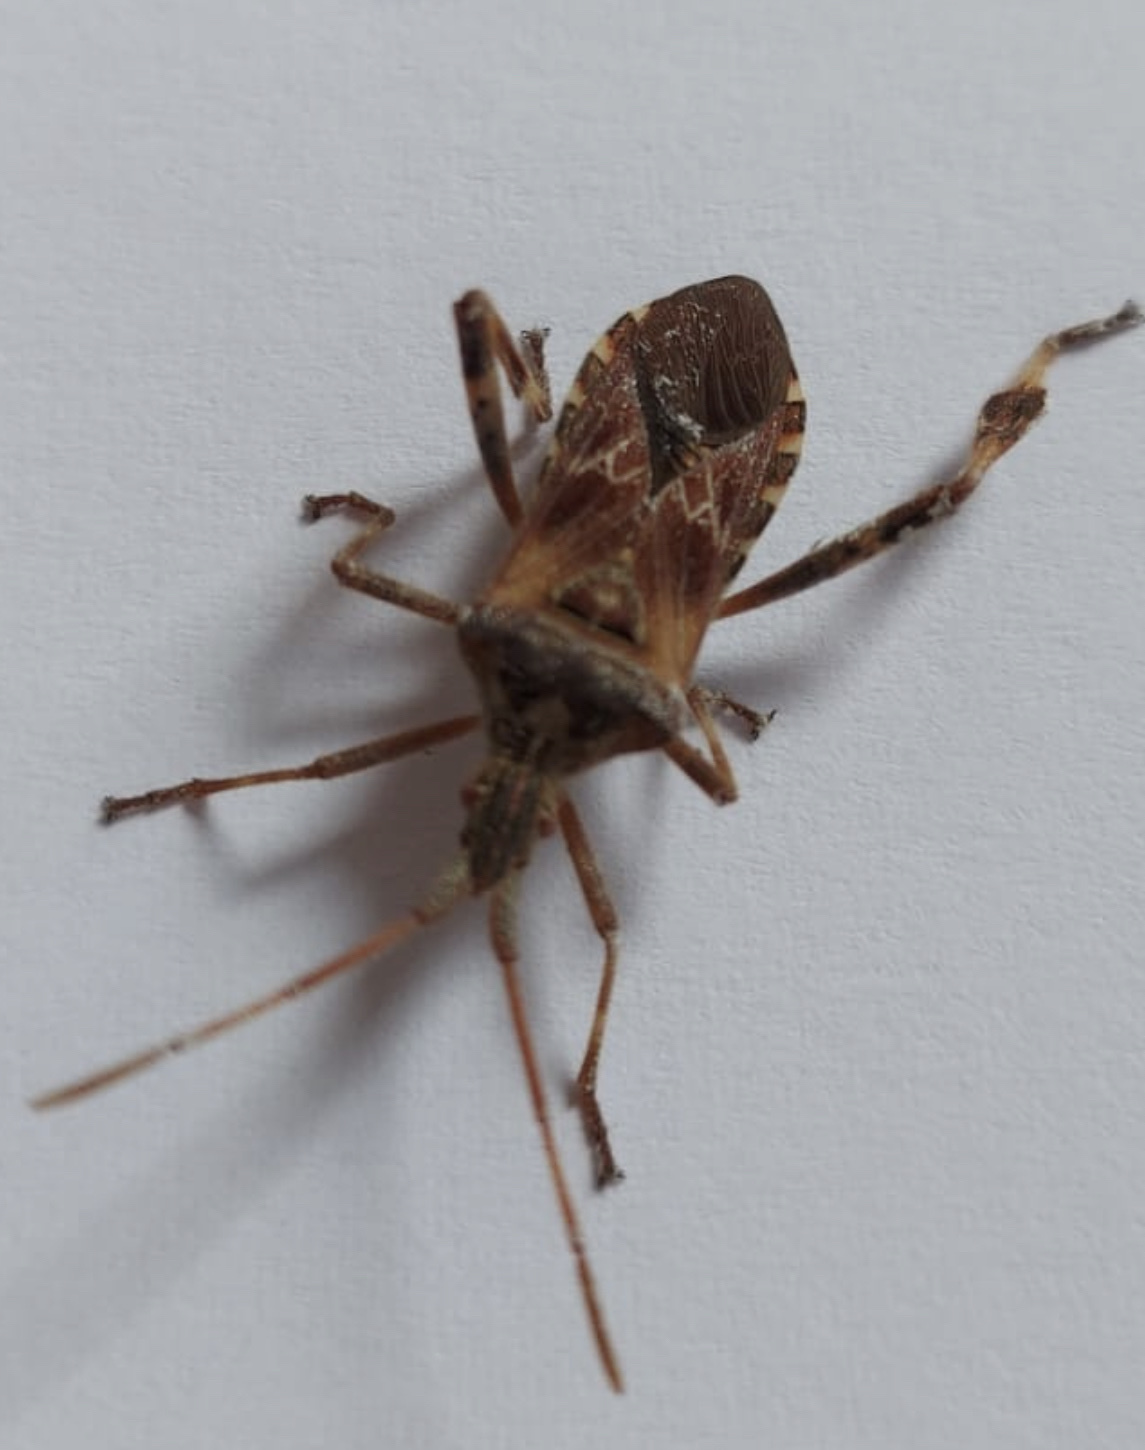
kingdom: Animalia
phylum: Arthropoda
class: Insecta
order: Hemiptera
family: Coreidae
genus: Leptoglossus
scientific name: Leptoglossus occidentalis
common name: Western conifer-seed bug
